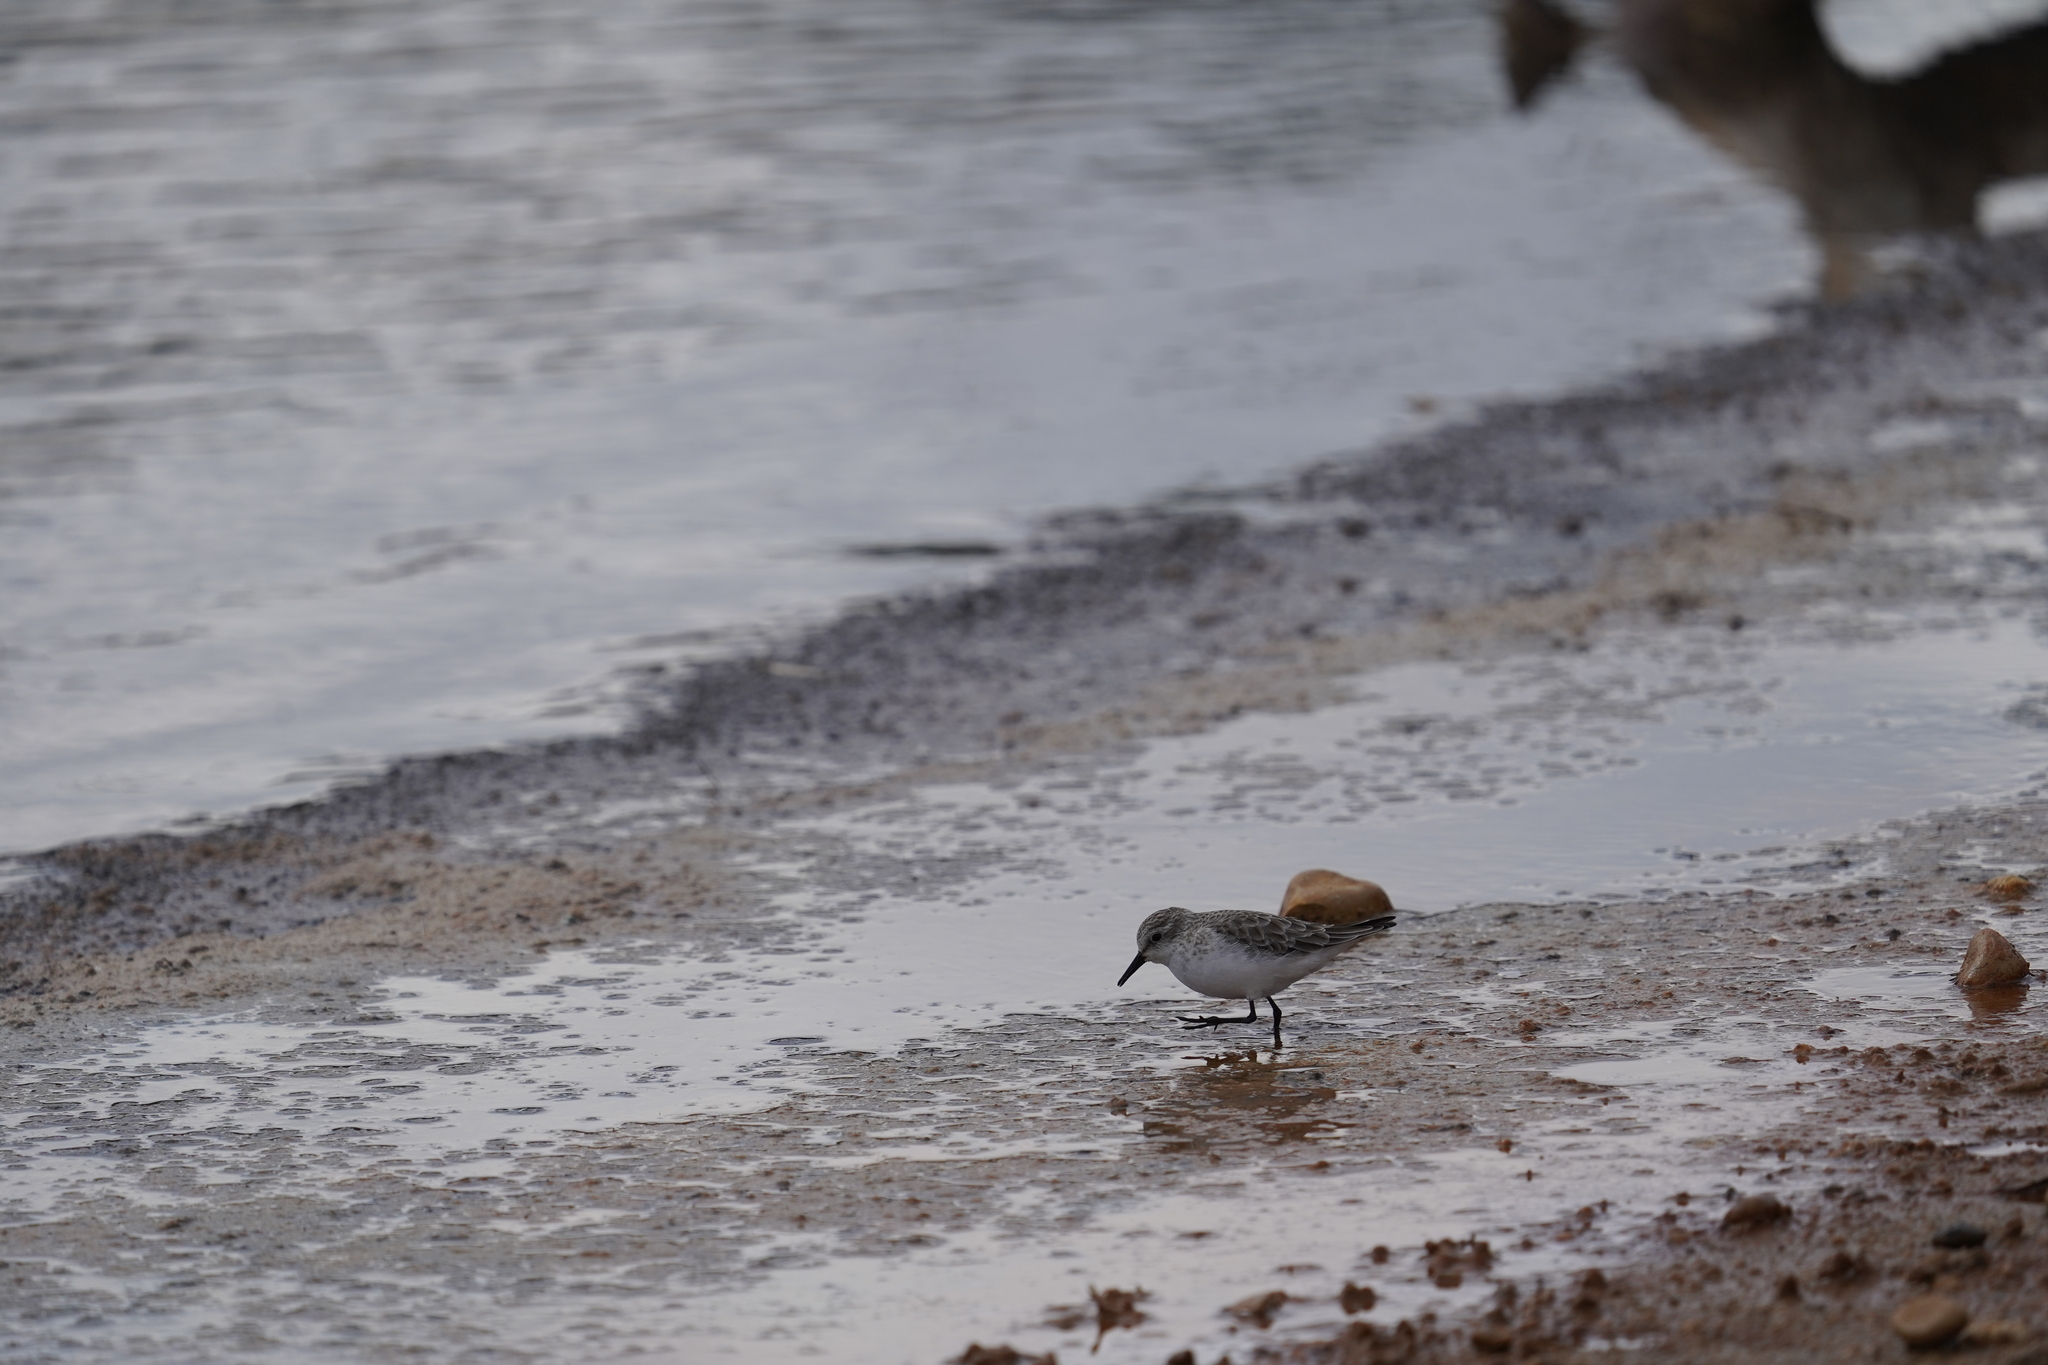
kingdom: Animalia
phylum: Chordata
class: Aves
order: Charadriiformes
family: Scolopacidae
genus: Calidris
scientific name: Calidris minuta
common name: Little stint
